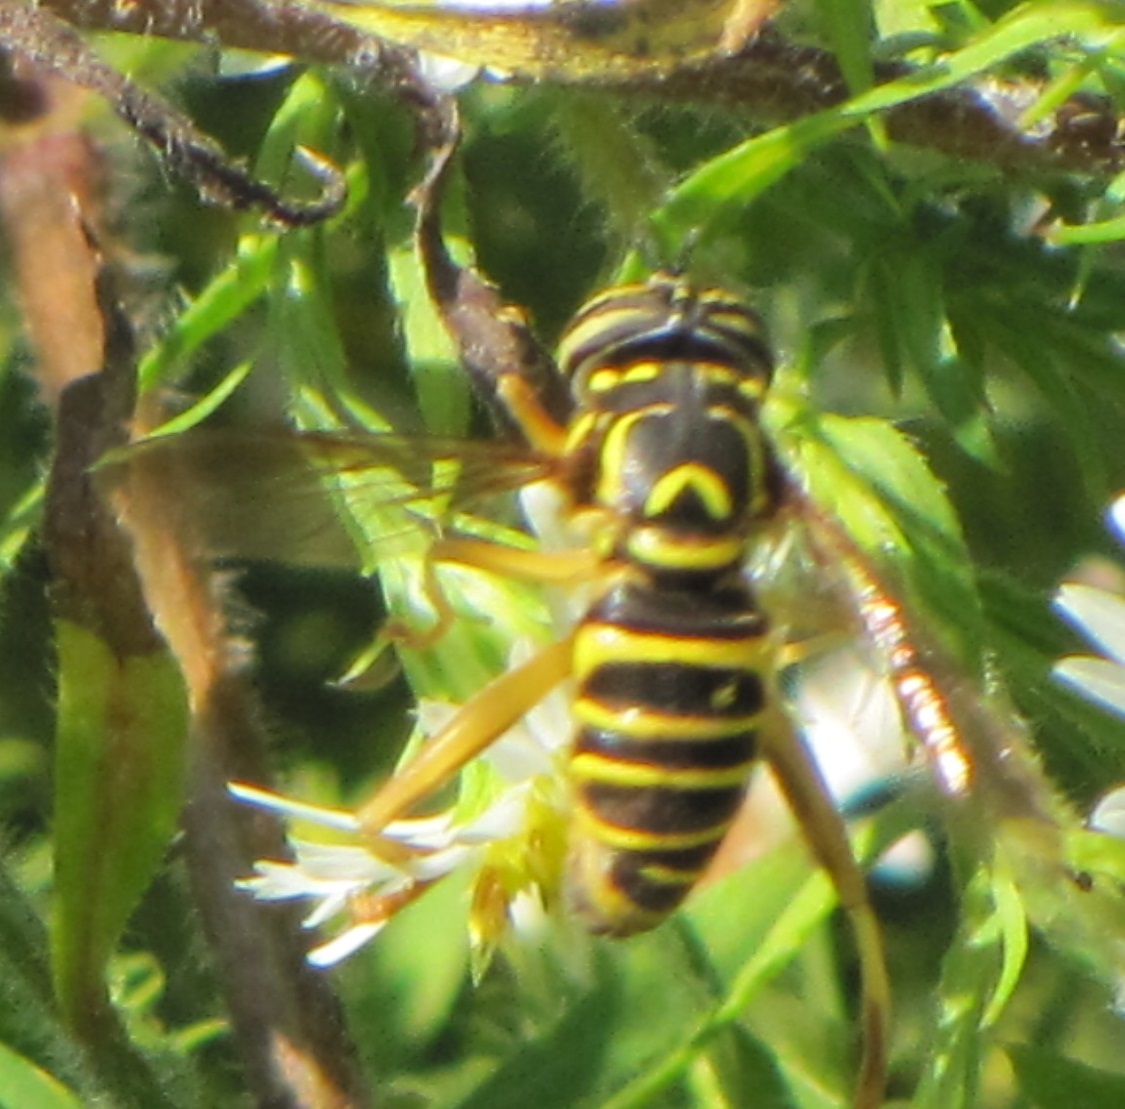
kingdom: Animalia
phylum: Arthropoda
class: Insecta
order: Diptera
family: Syrphidae
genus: Spilomyia
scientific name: Spilomyia longicornis
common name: Eastern hornet fly
